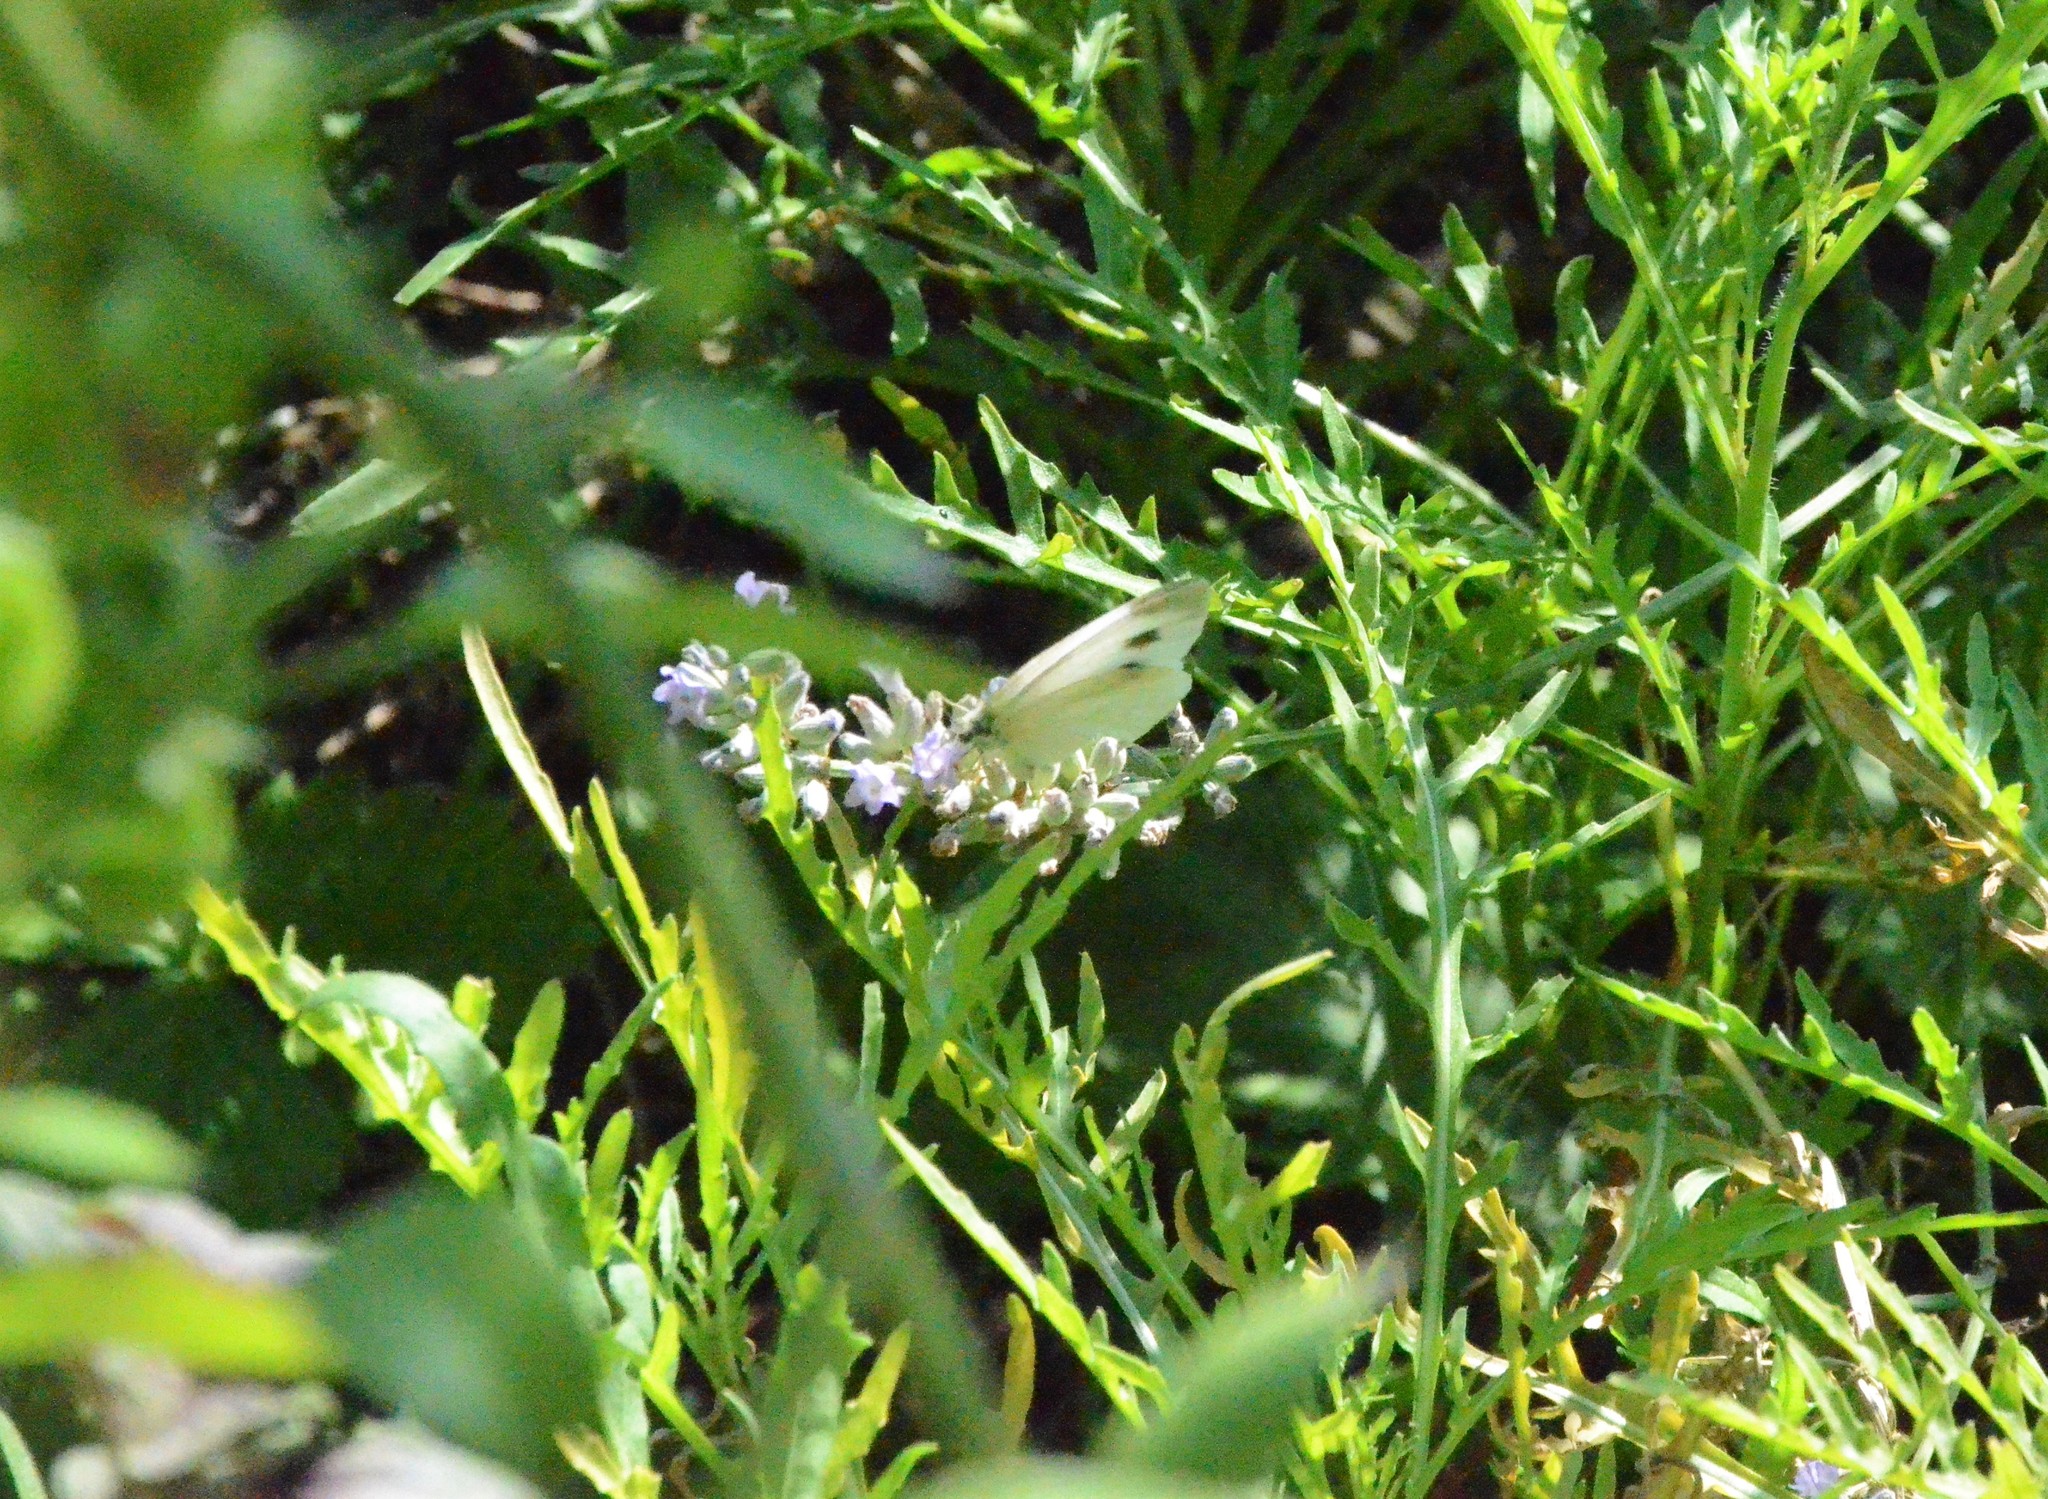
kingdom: Animalia
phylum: Arthropoda
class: Insecta
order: Lepidoptera
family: Pieridae
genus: Pieris
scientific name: Pieris mannii
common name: Southern small white
